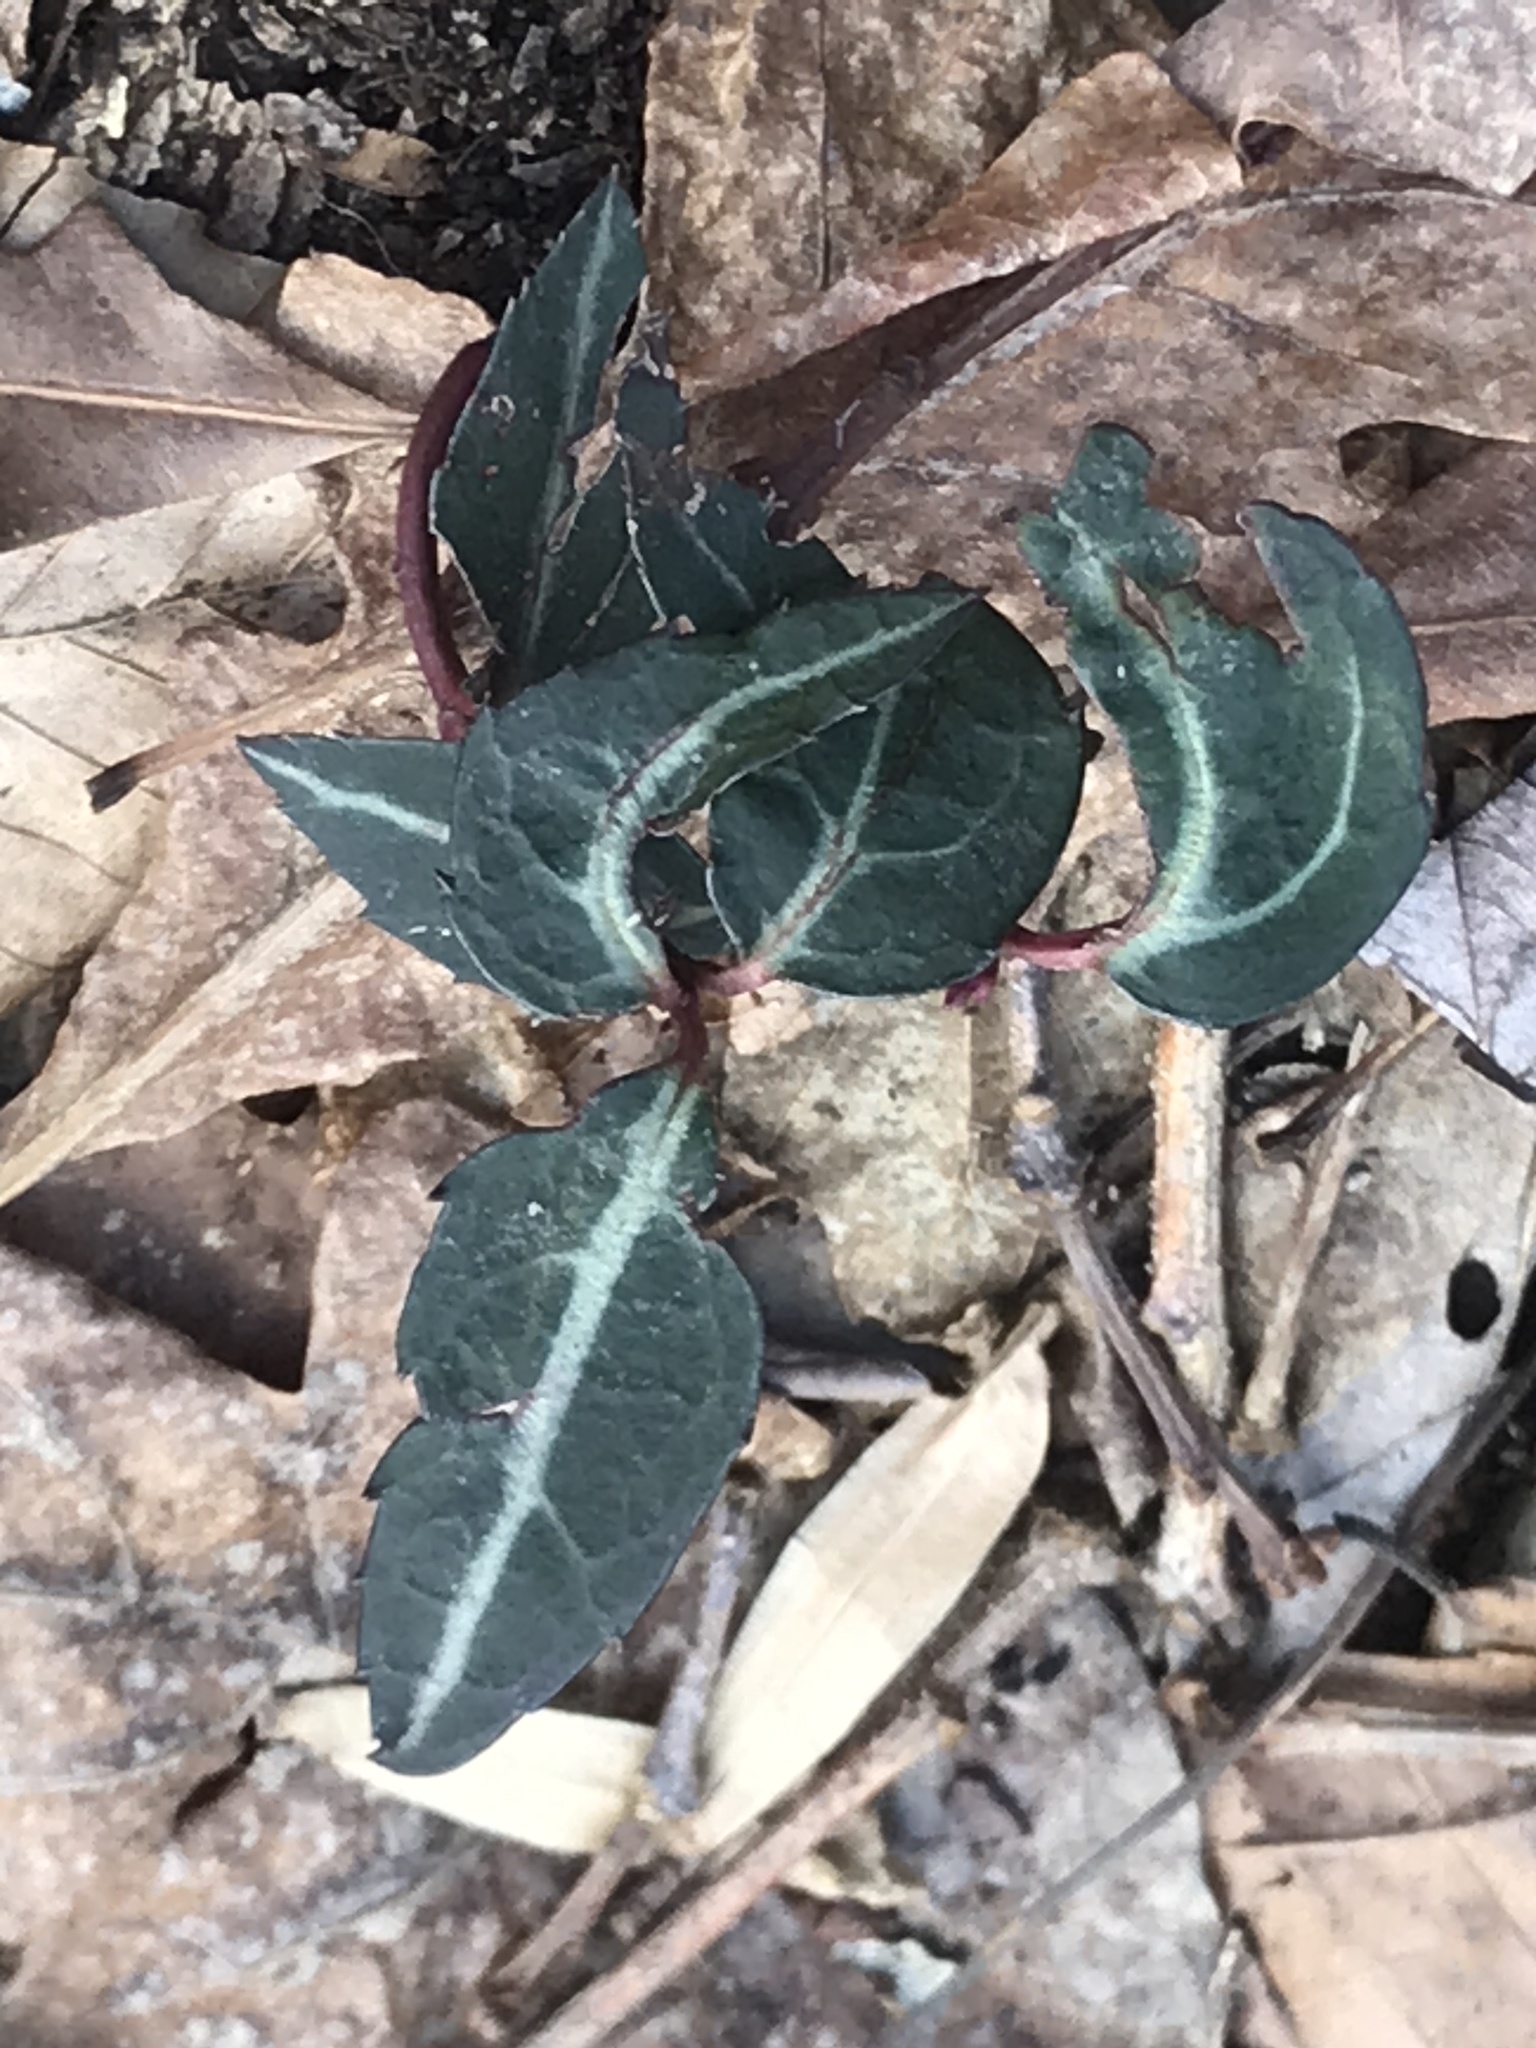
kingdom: Plantae
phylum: Tracheophyta
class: Magnoliopsida
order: Ericales
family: Ericaceae
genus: Chimaphila
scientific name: Chimaphila maculata
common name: Spotted pipsissewa
